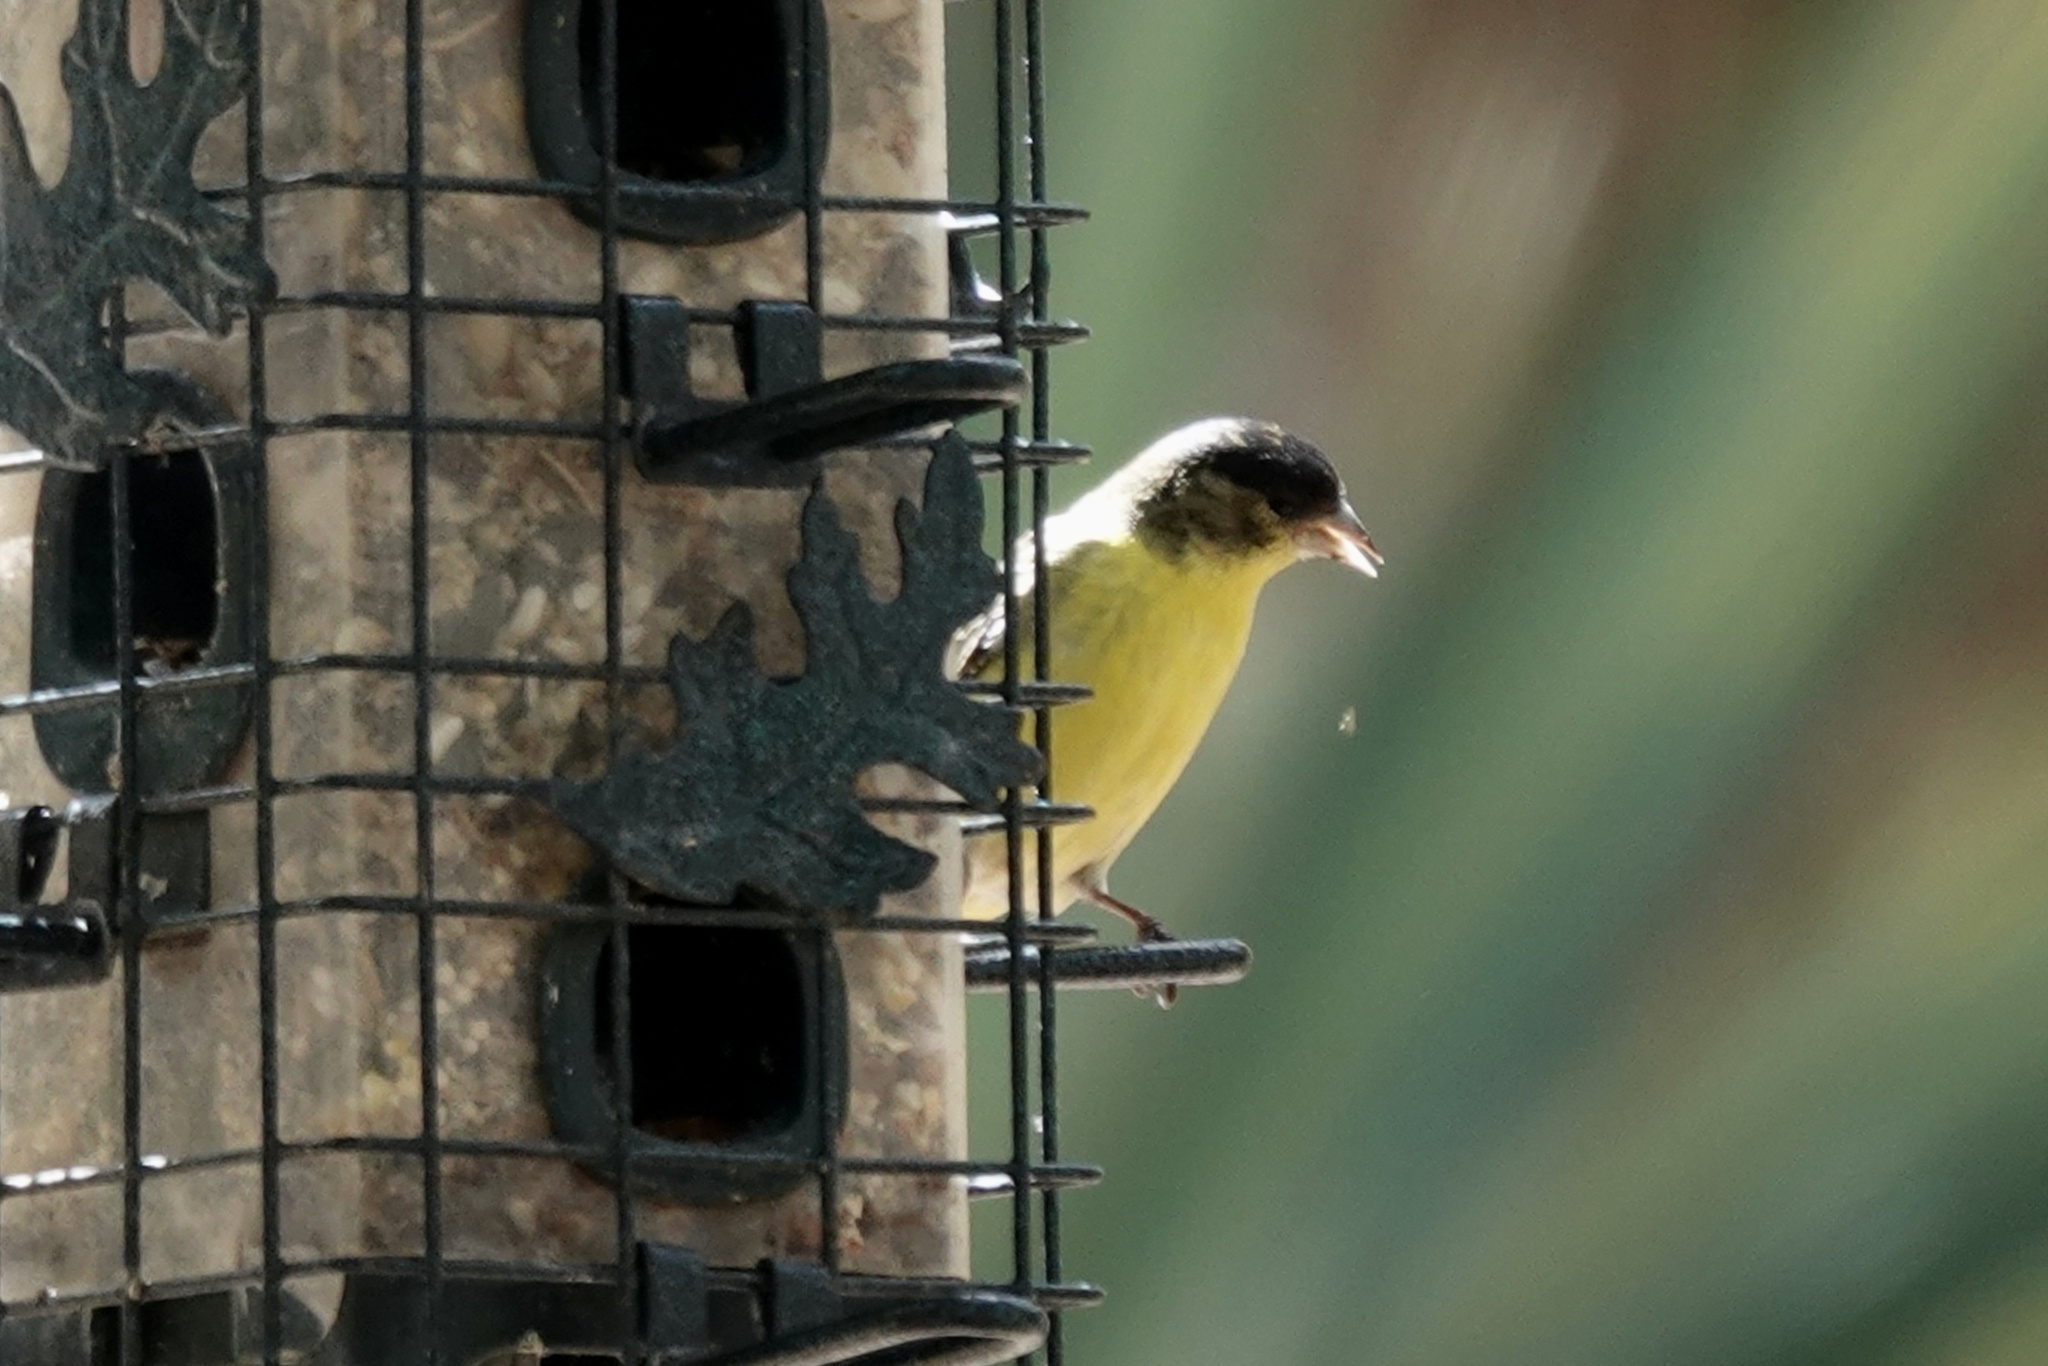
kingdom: Animalia
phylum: Chordata
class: Aves
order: Passeriformes
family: Fringillidae
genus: Spinus
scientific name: Spinus psaltria
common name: Lesser goldfinch
